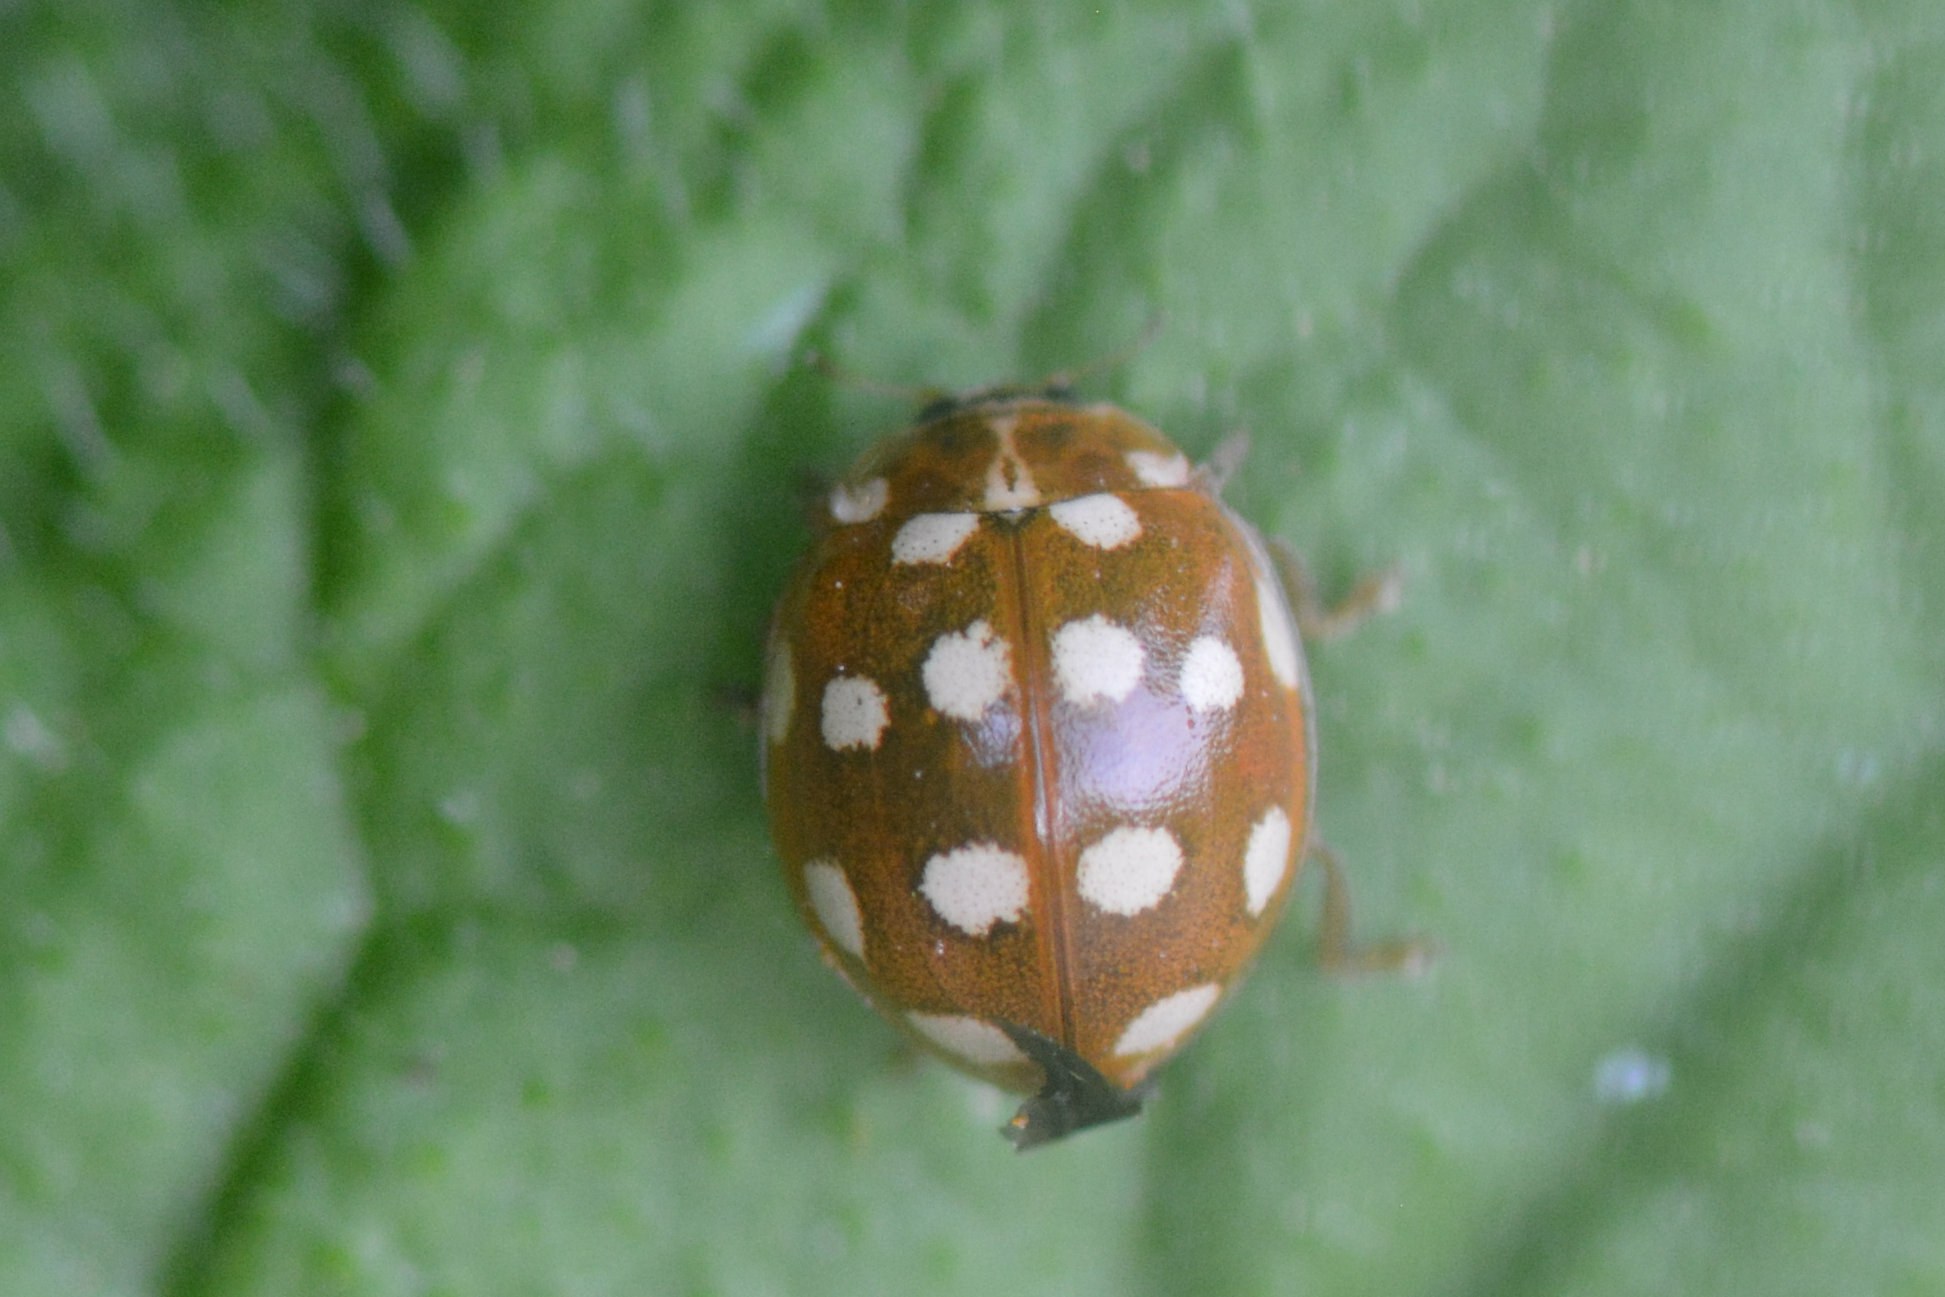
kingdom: Animalia
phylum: Arthropoda
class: Insecta
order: Coleoptera
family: Coccinellidae
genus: Calvia
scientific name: Calvia quatuordecimguttata
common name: Cream-spot ladybird
